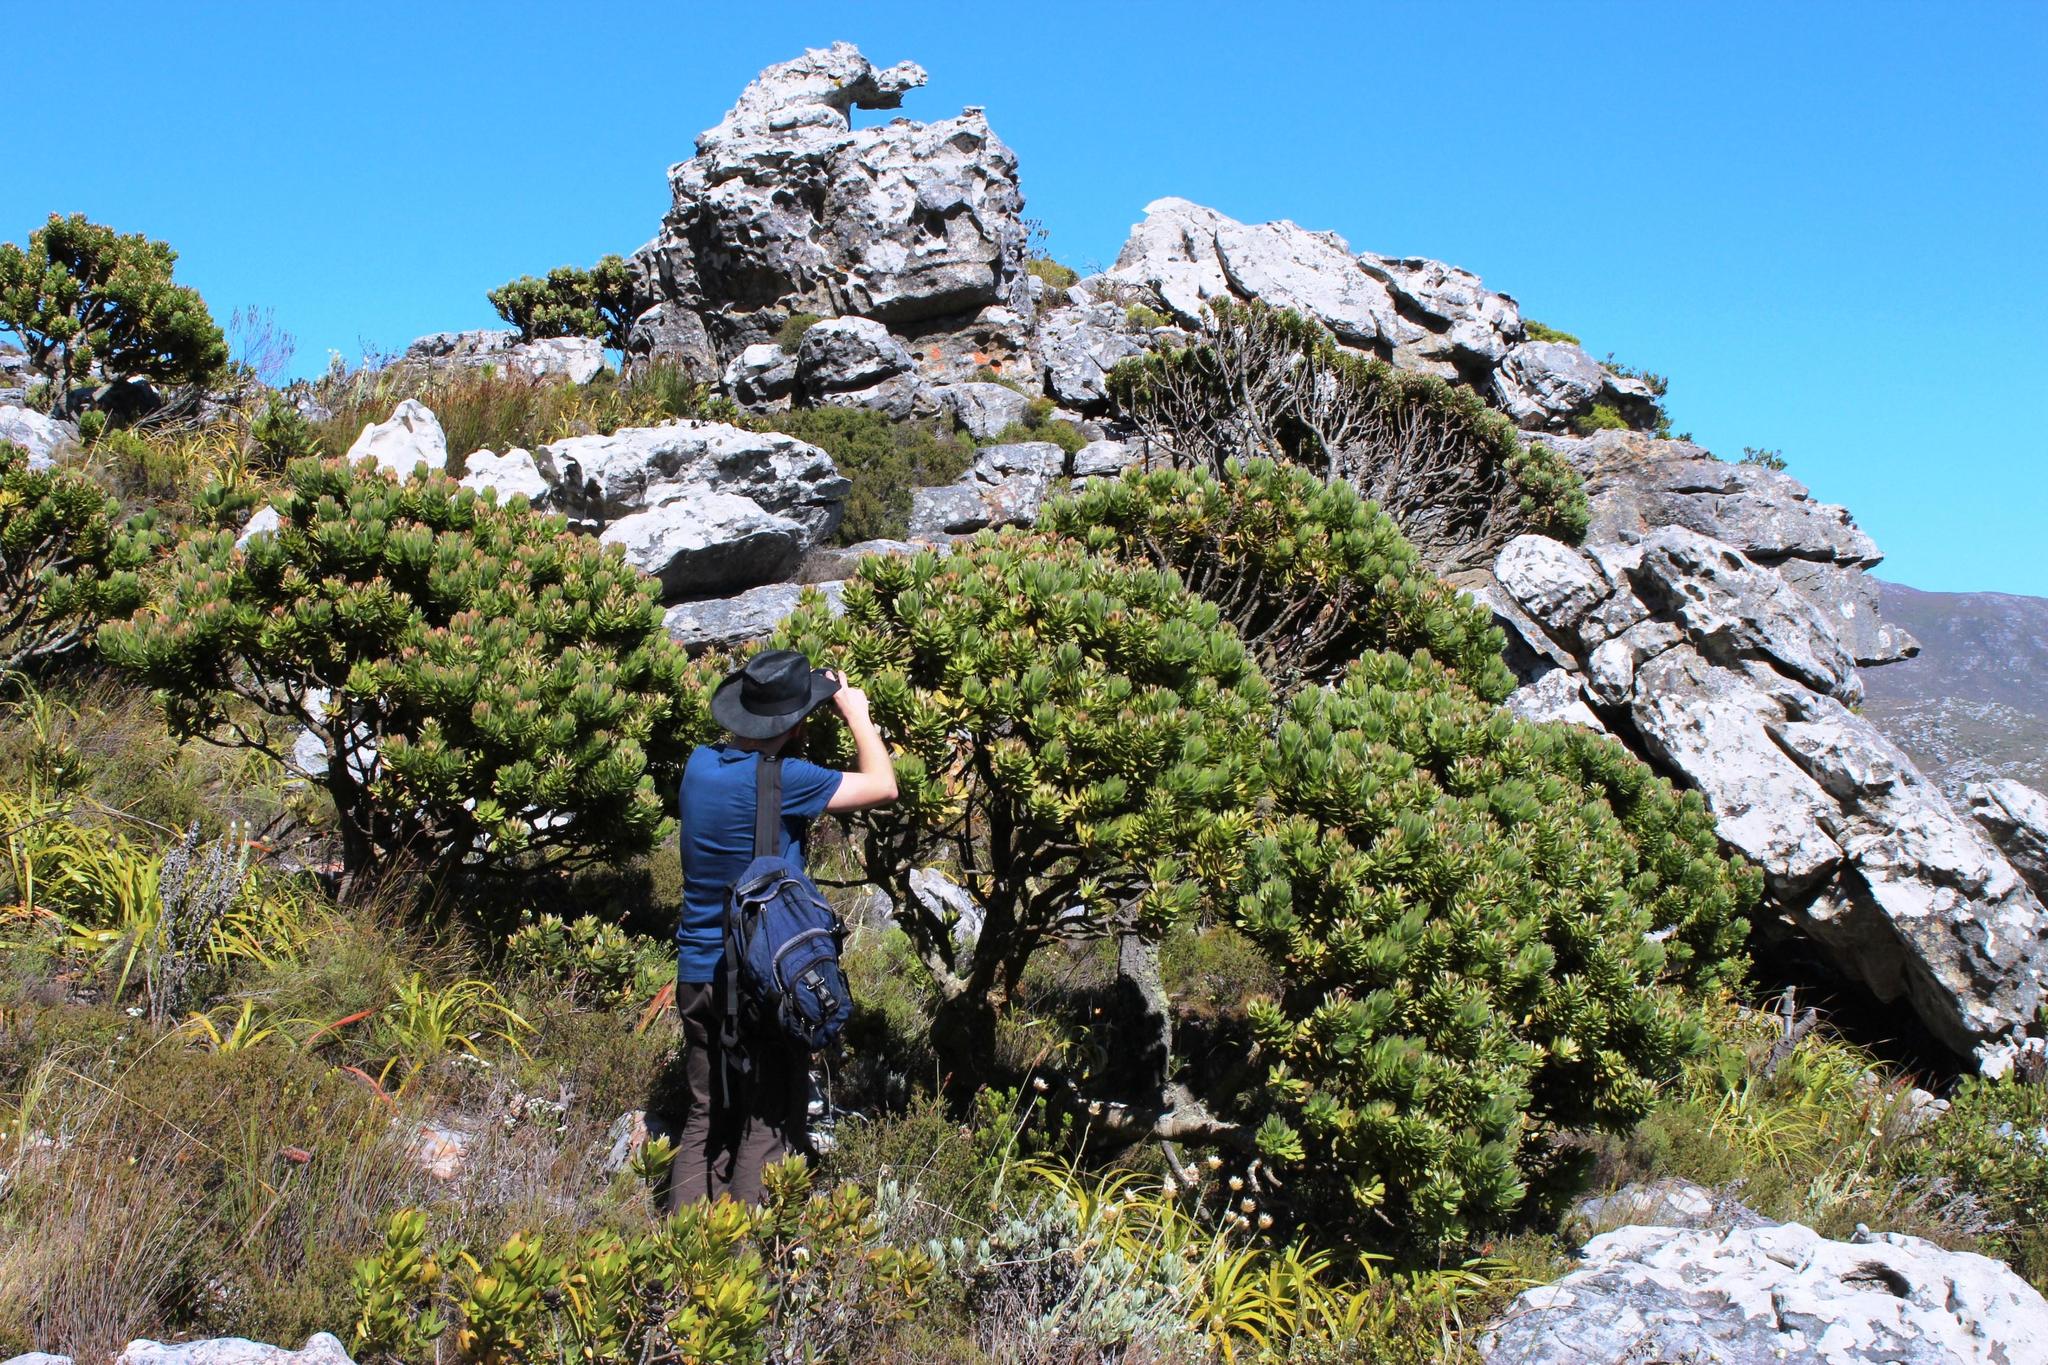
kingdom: Plantae
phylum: Tracheophyta
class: Magnoliopsida
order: Proteales
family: Proteaceae
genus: Mimetes
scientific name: Mimetes fimbriifolius
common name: Fringed bottlebrush
